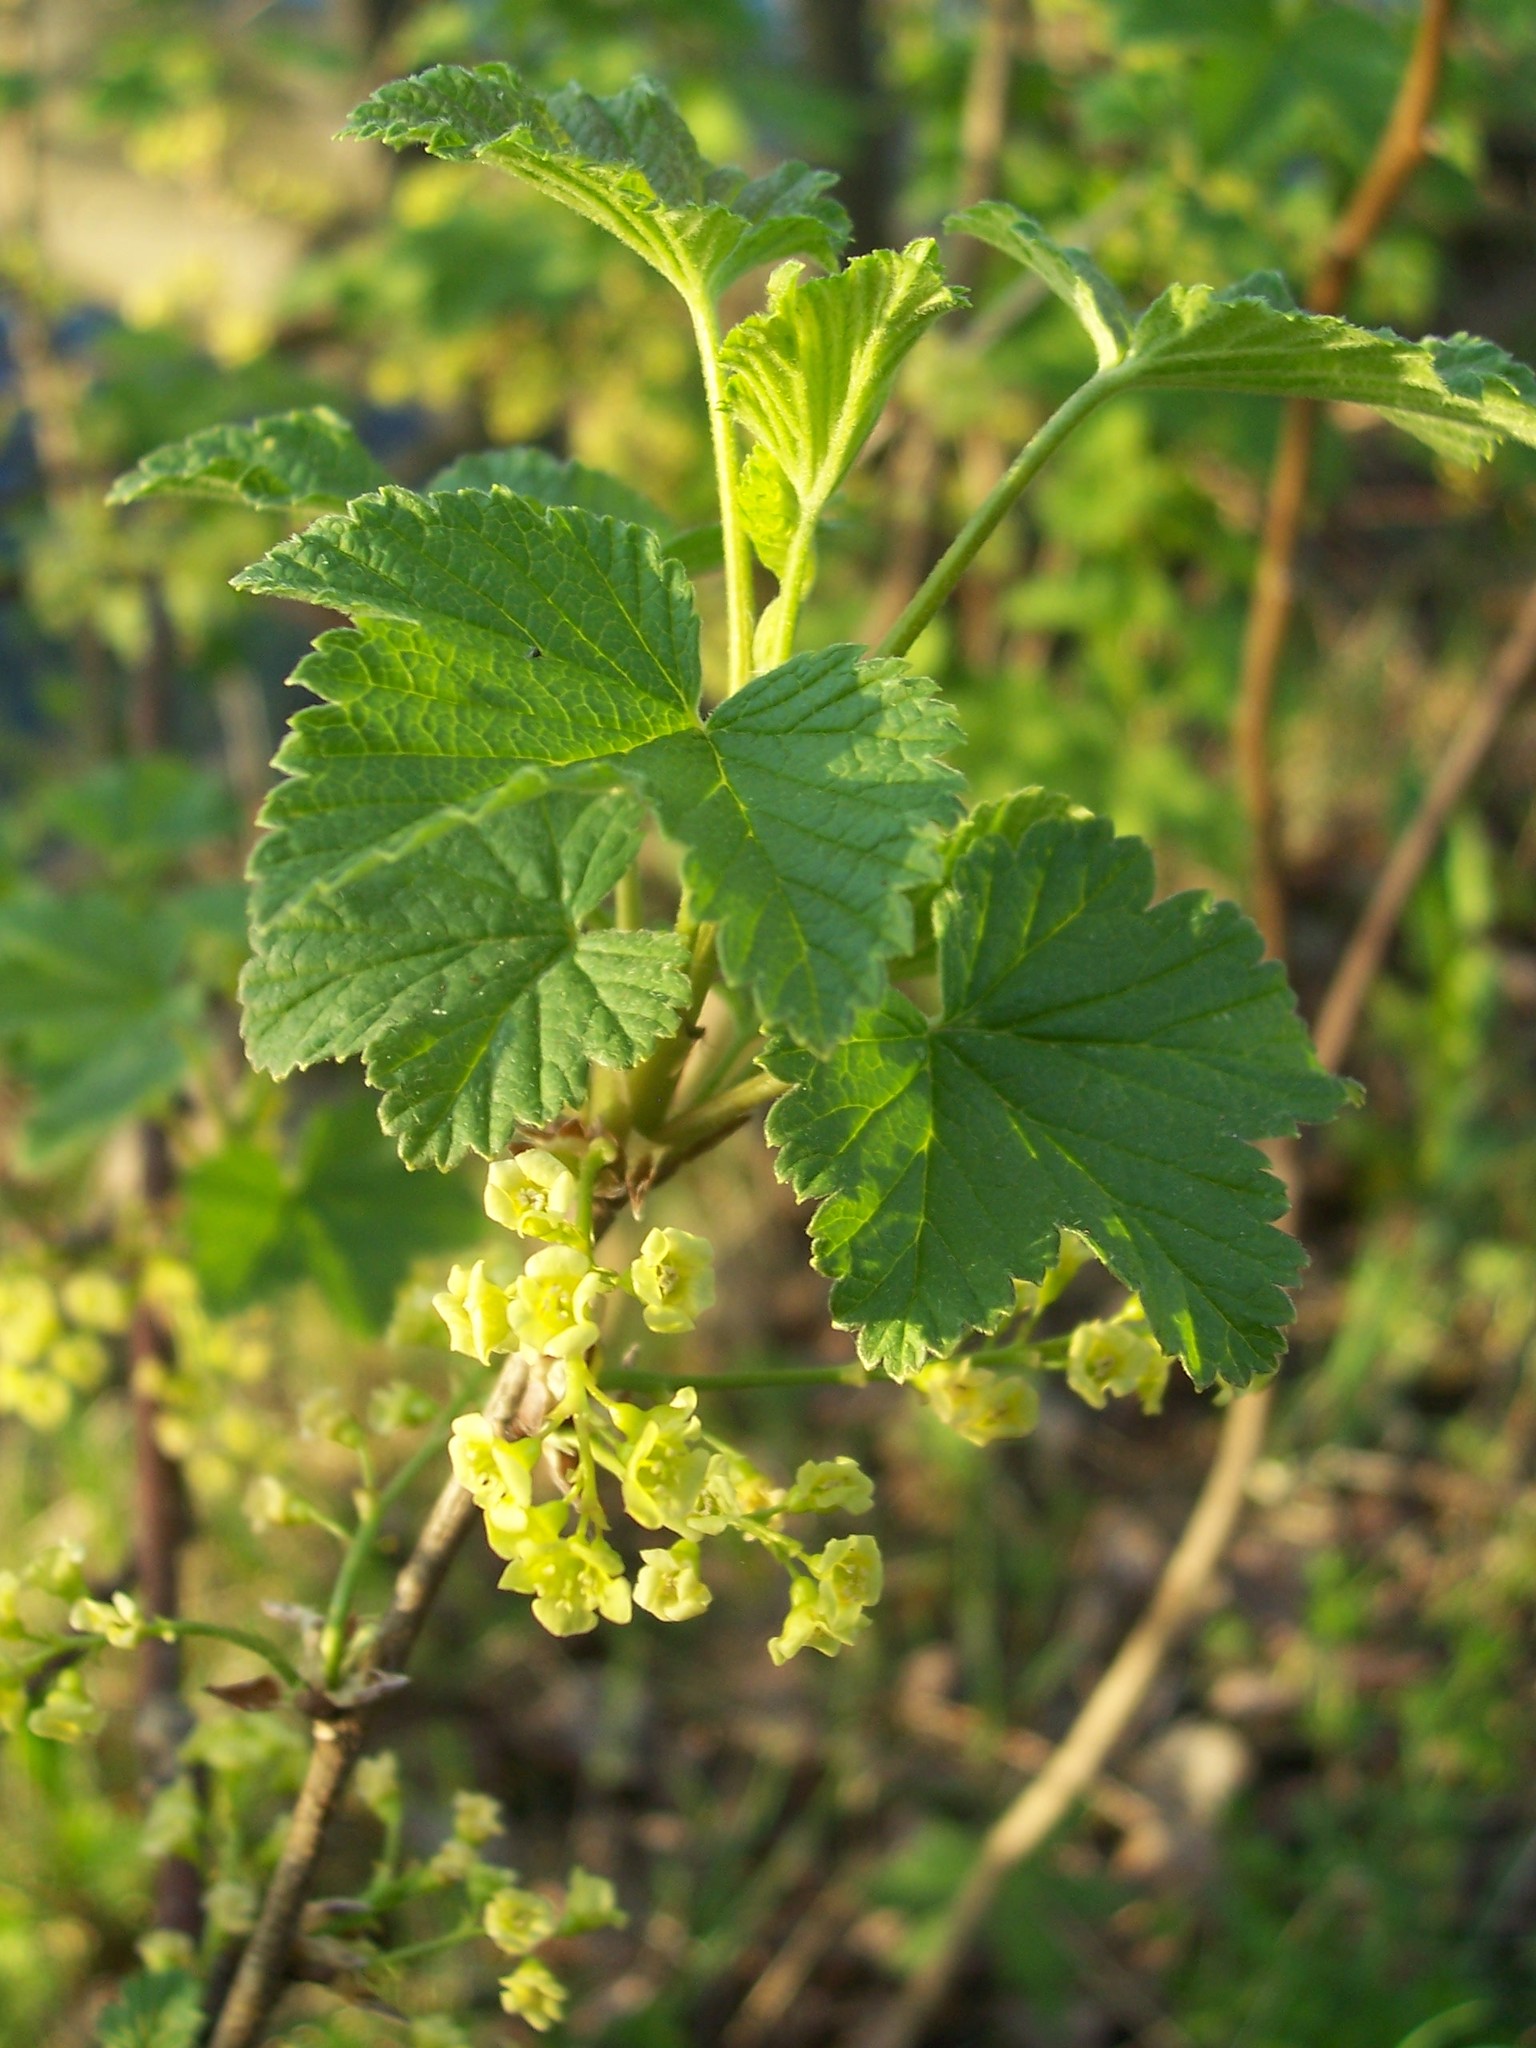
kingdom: Plantae
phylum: Tracheophyta
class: Magnoliopsida
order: Saxifragales
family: Grossulariaceae
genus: Ribes
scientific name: Ribes rubrum
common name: Red currant
